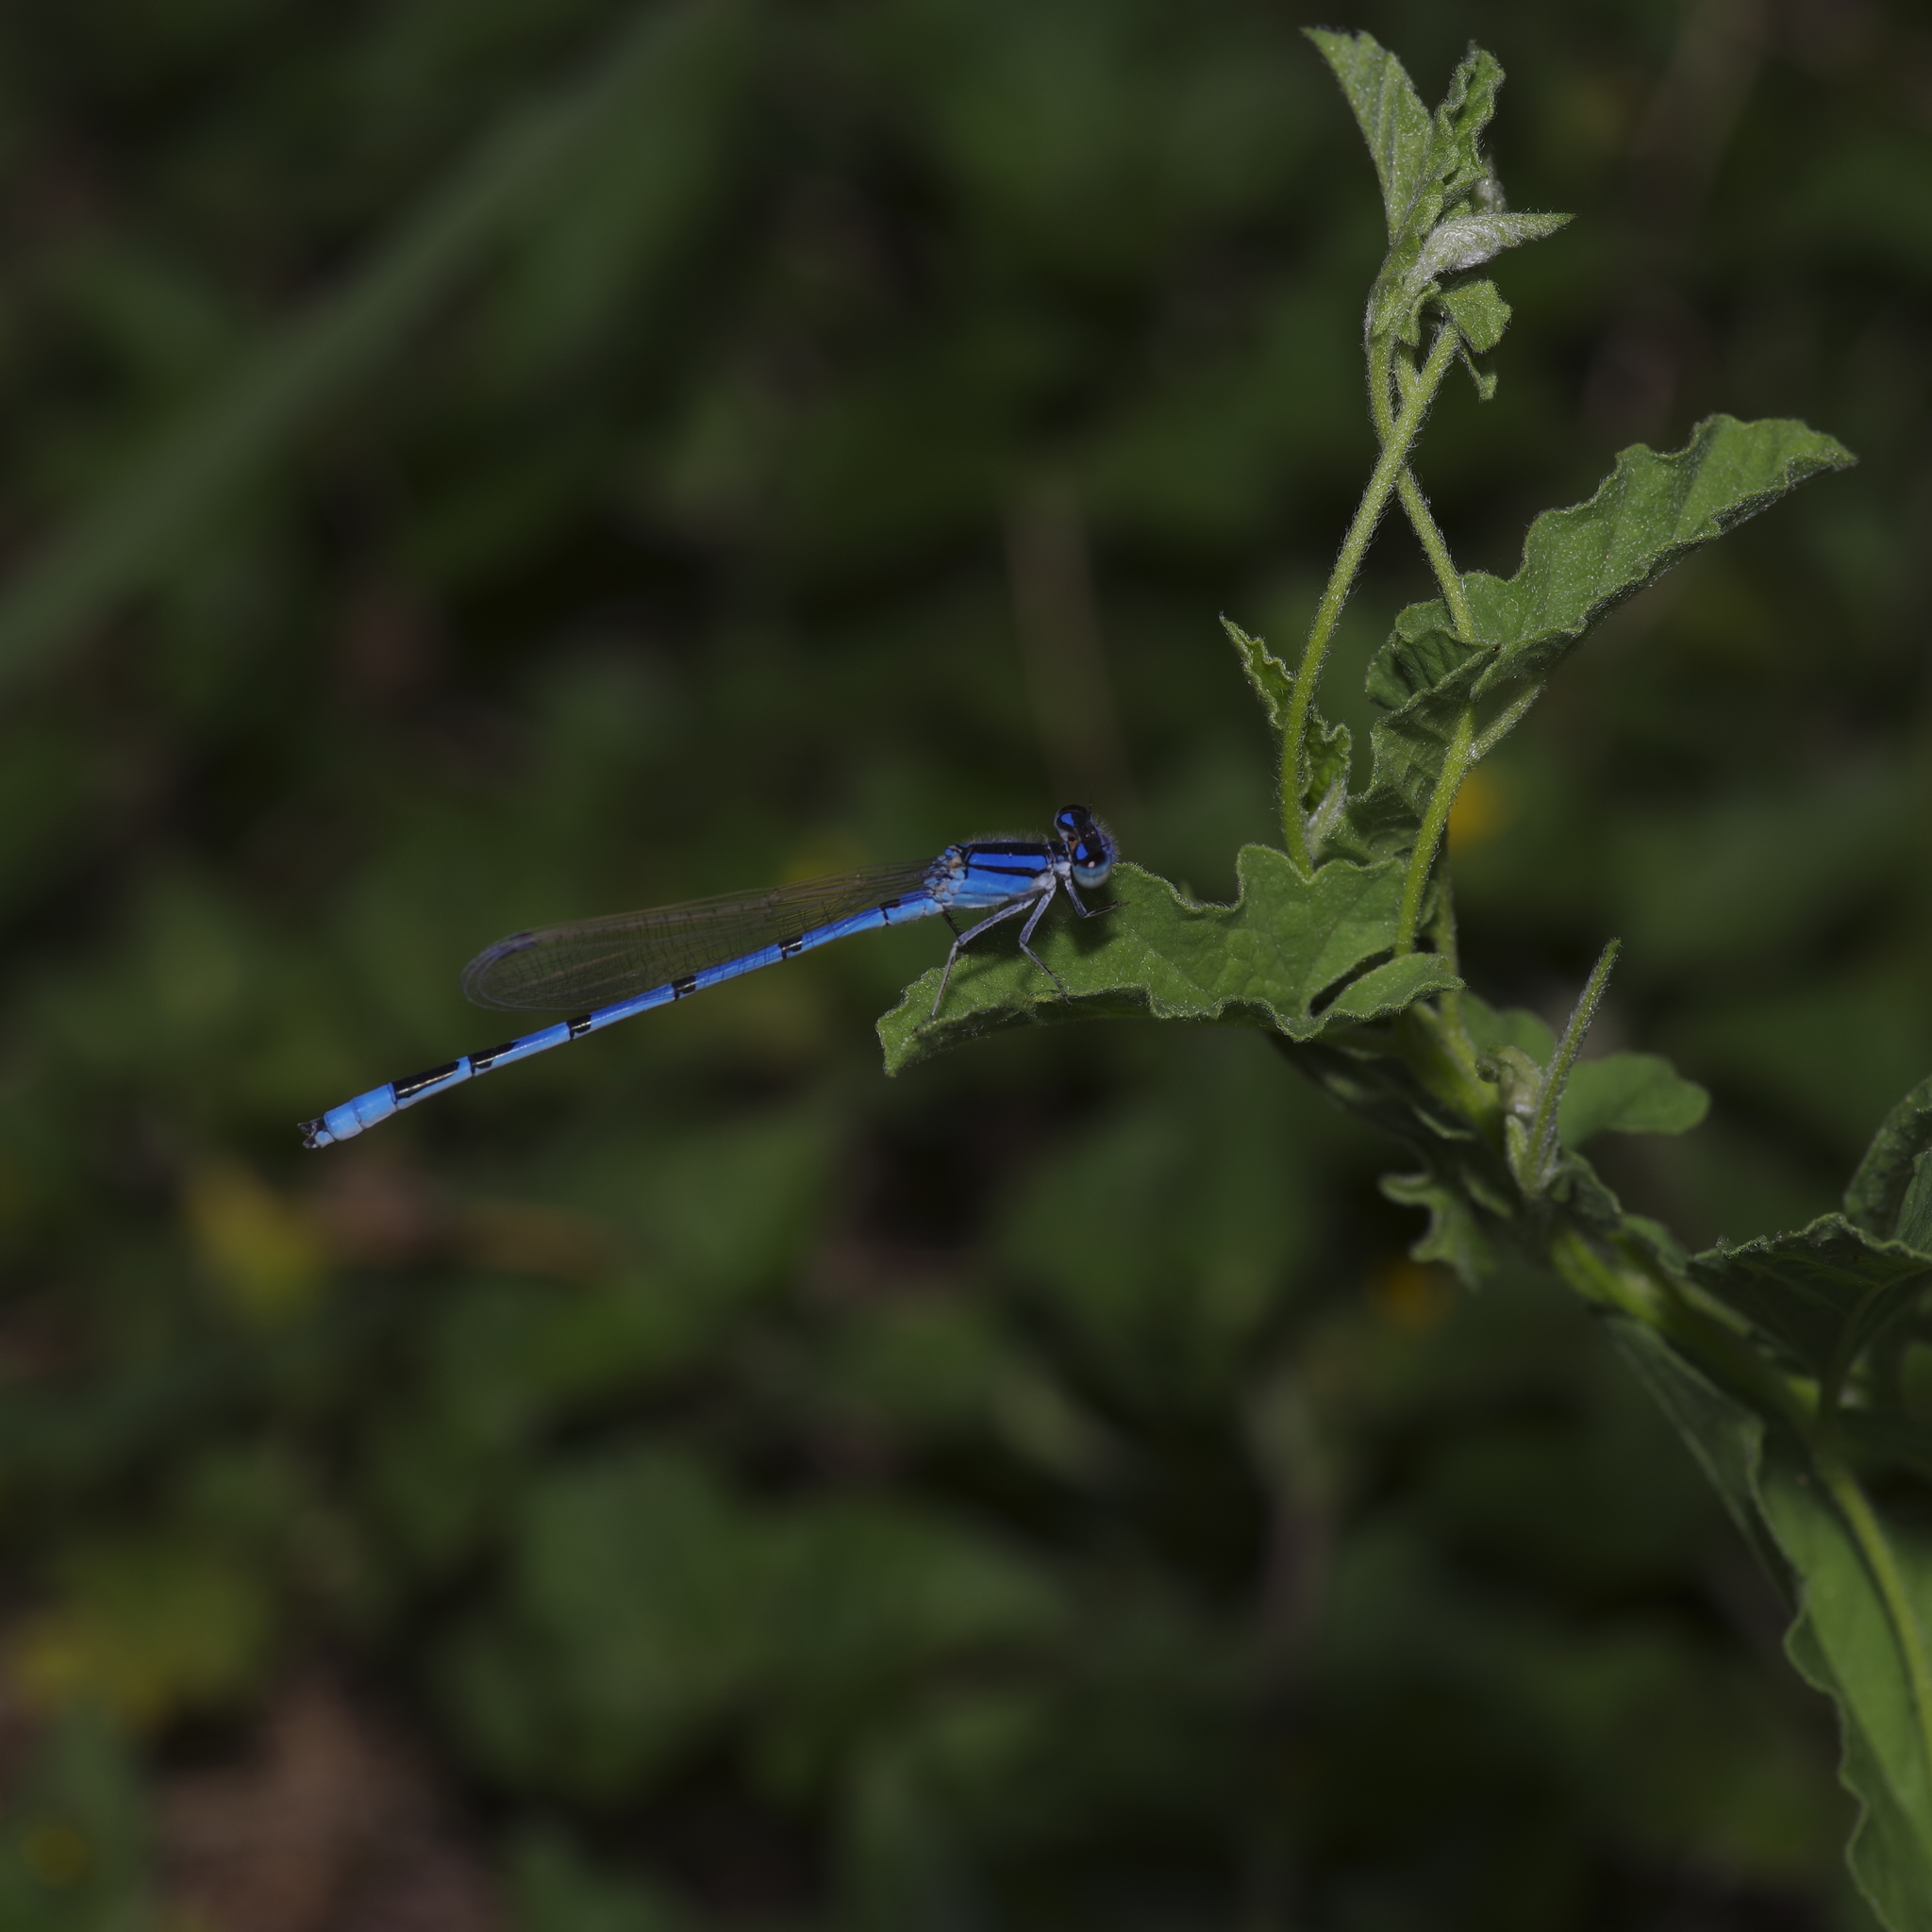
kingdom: Animalia
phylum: Arthropoda
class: Insecta
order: Odonata
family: Coenagrionidae
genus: Enallagma
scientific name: Enallagma civile
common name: Damselfly
